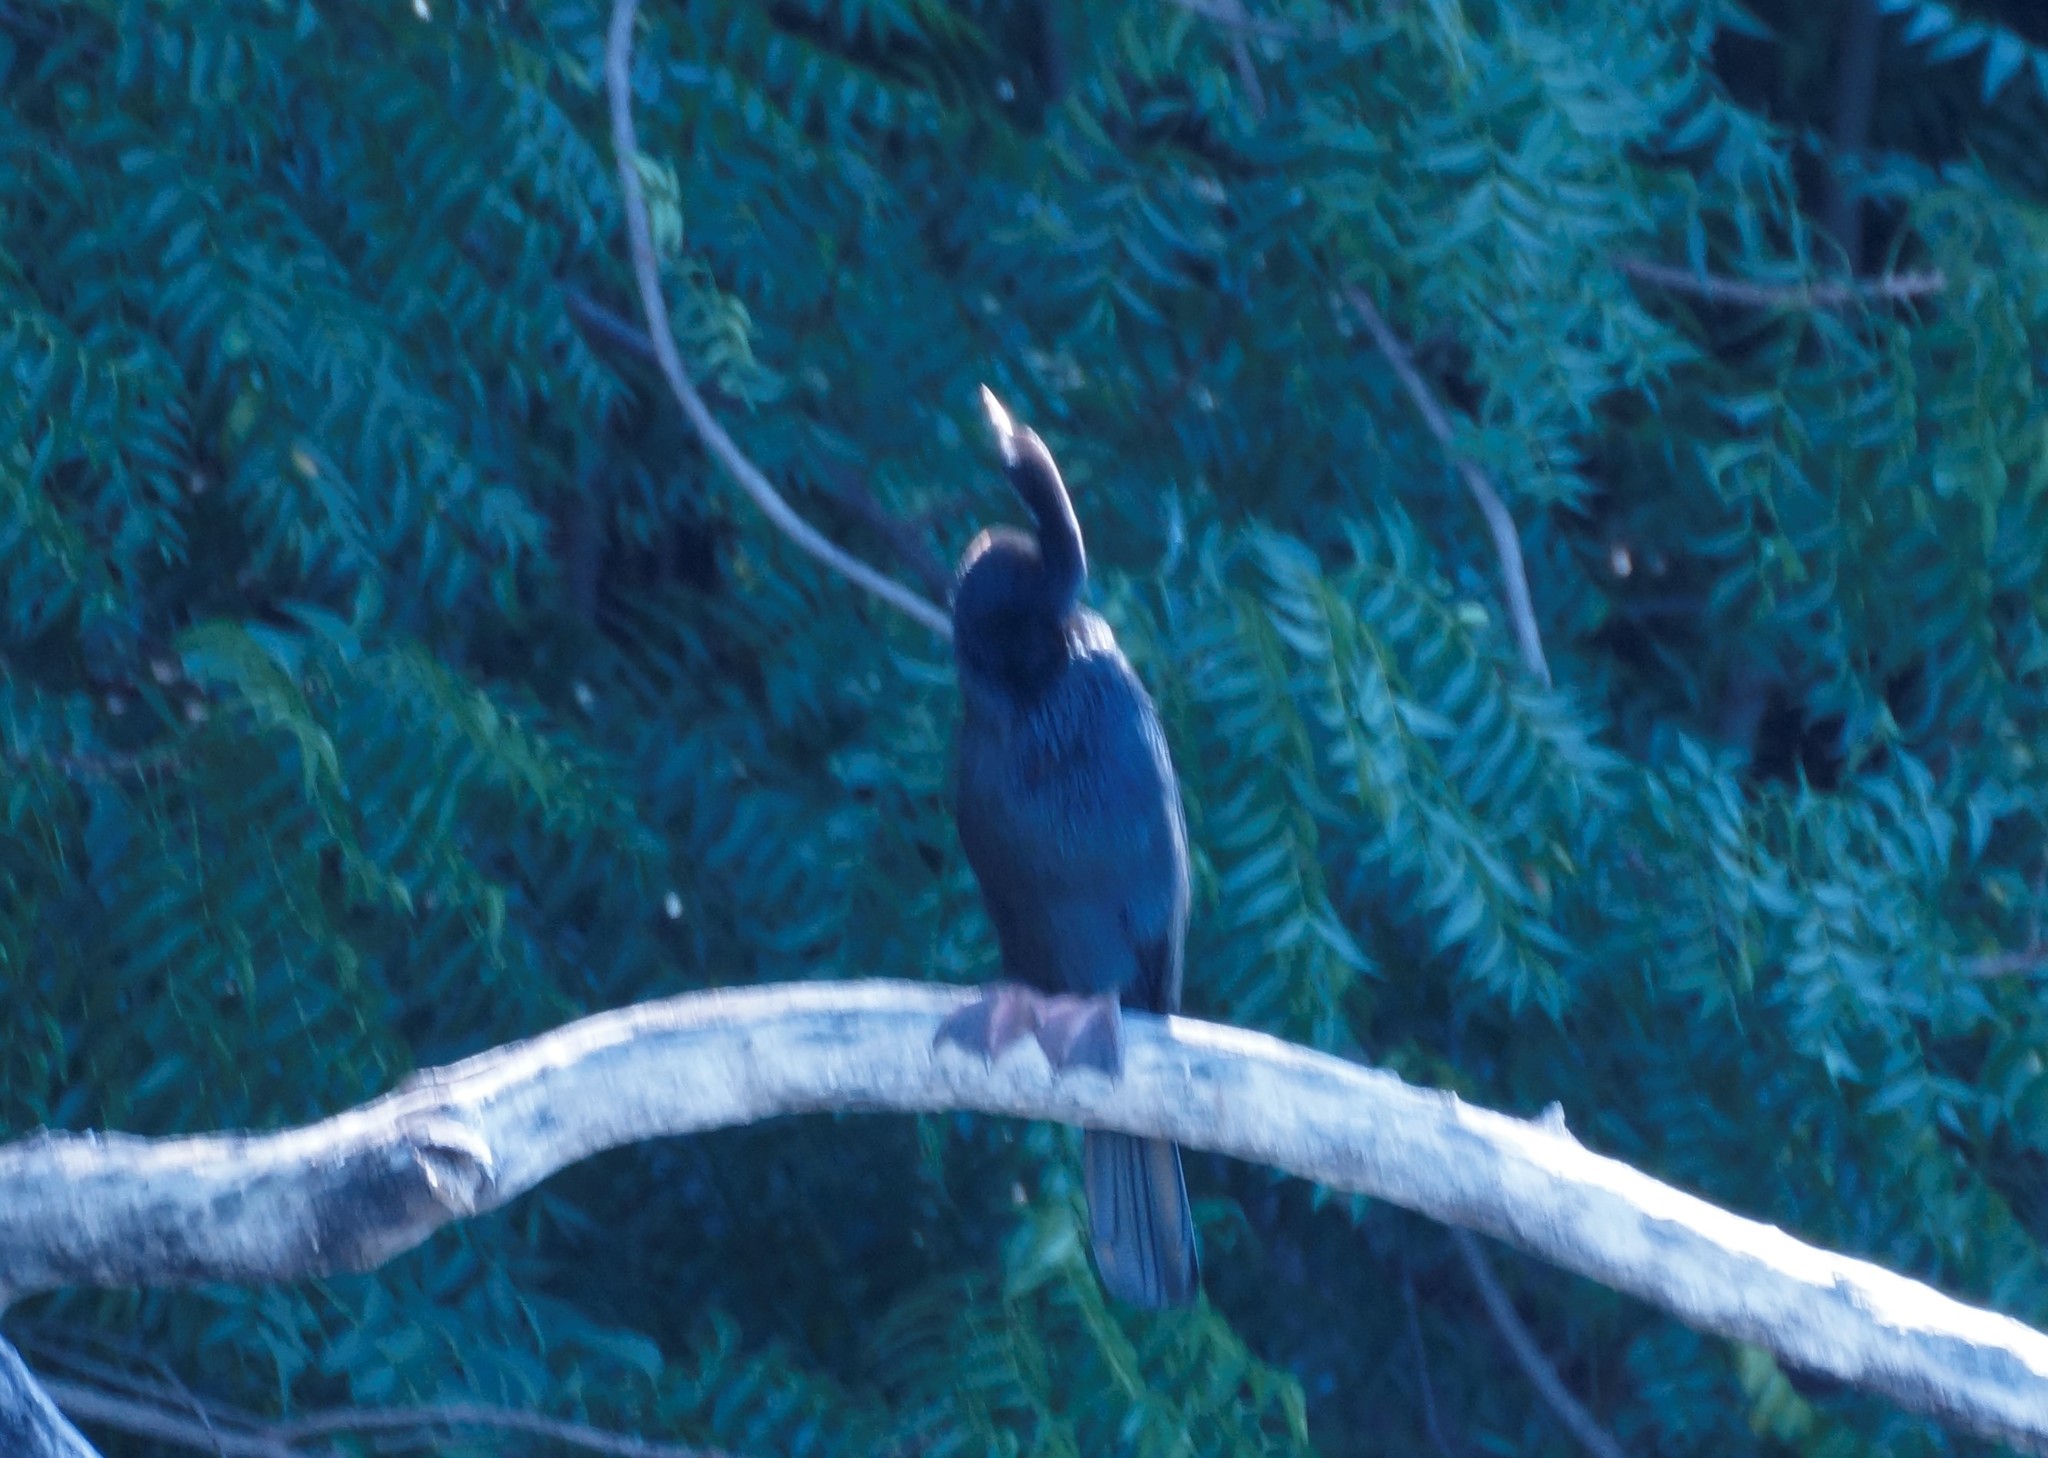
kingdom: Animalia
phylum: Chordata
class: Aves
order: Suliformes
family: Anhingidae
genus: Anhinga
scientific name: Anhinga novaehollandiae
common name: Australasian darter
